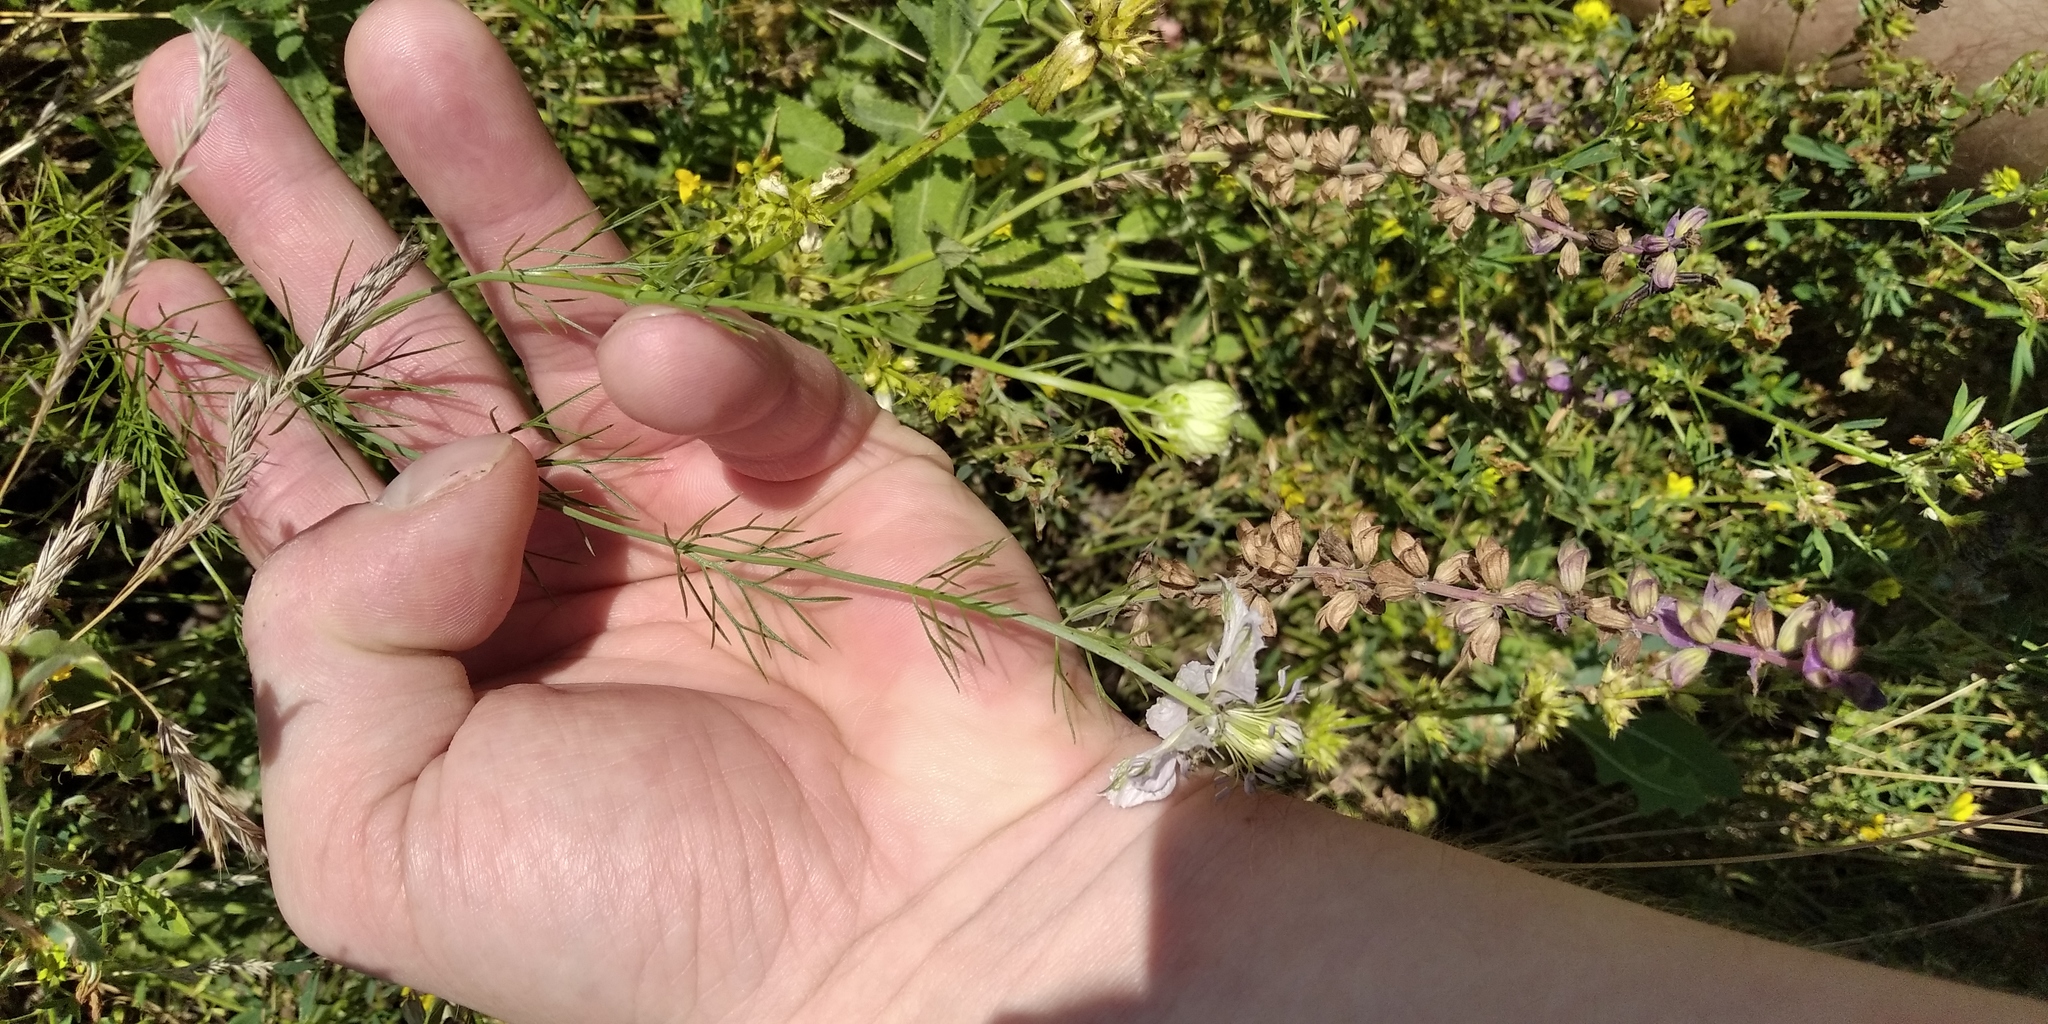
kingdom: Plantae
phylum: Tracheophyta
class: Magnoliopsida
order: Ranunculales
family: Ranunculaceae
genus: Nigella
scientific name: Nigella arvensis
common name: Wild fennel-flower
